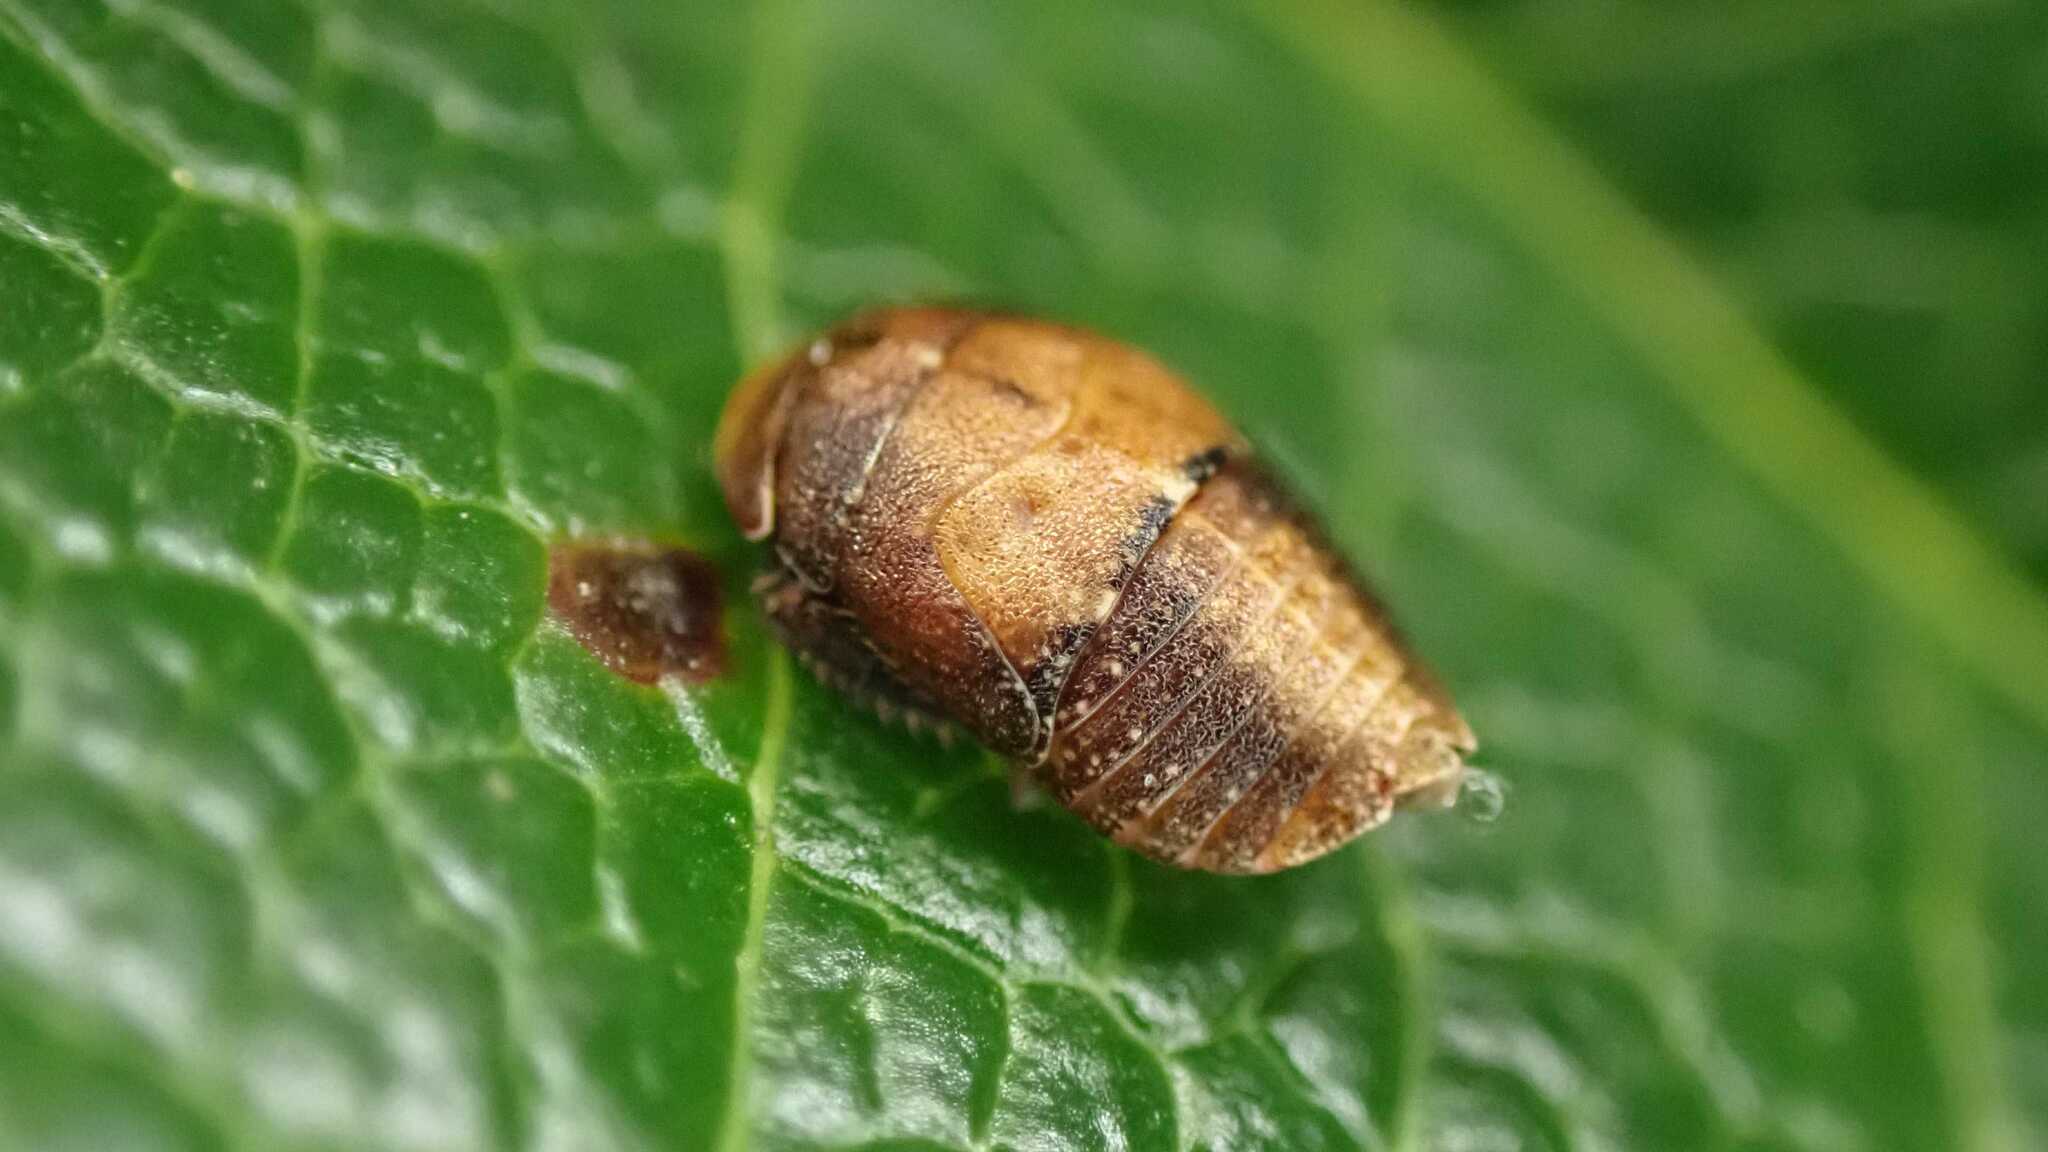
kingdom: Animalia
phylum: Arthropoda
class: Insecta
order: Hemiptera
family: Cicadellidae
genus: Penthimia
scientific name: Penthimia nigra
